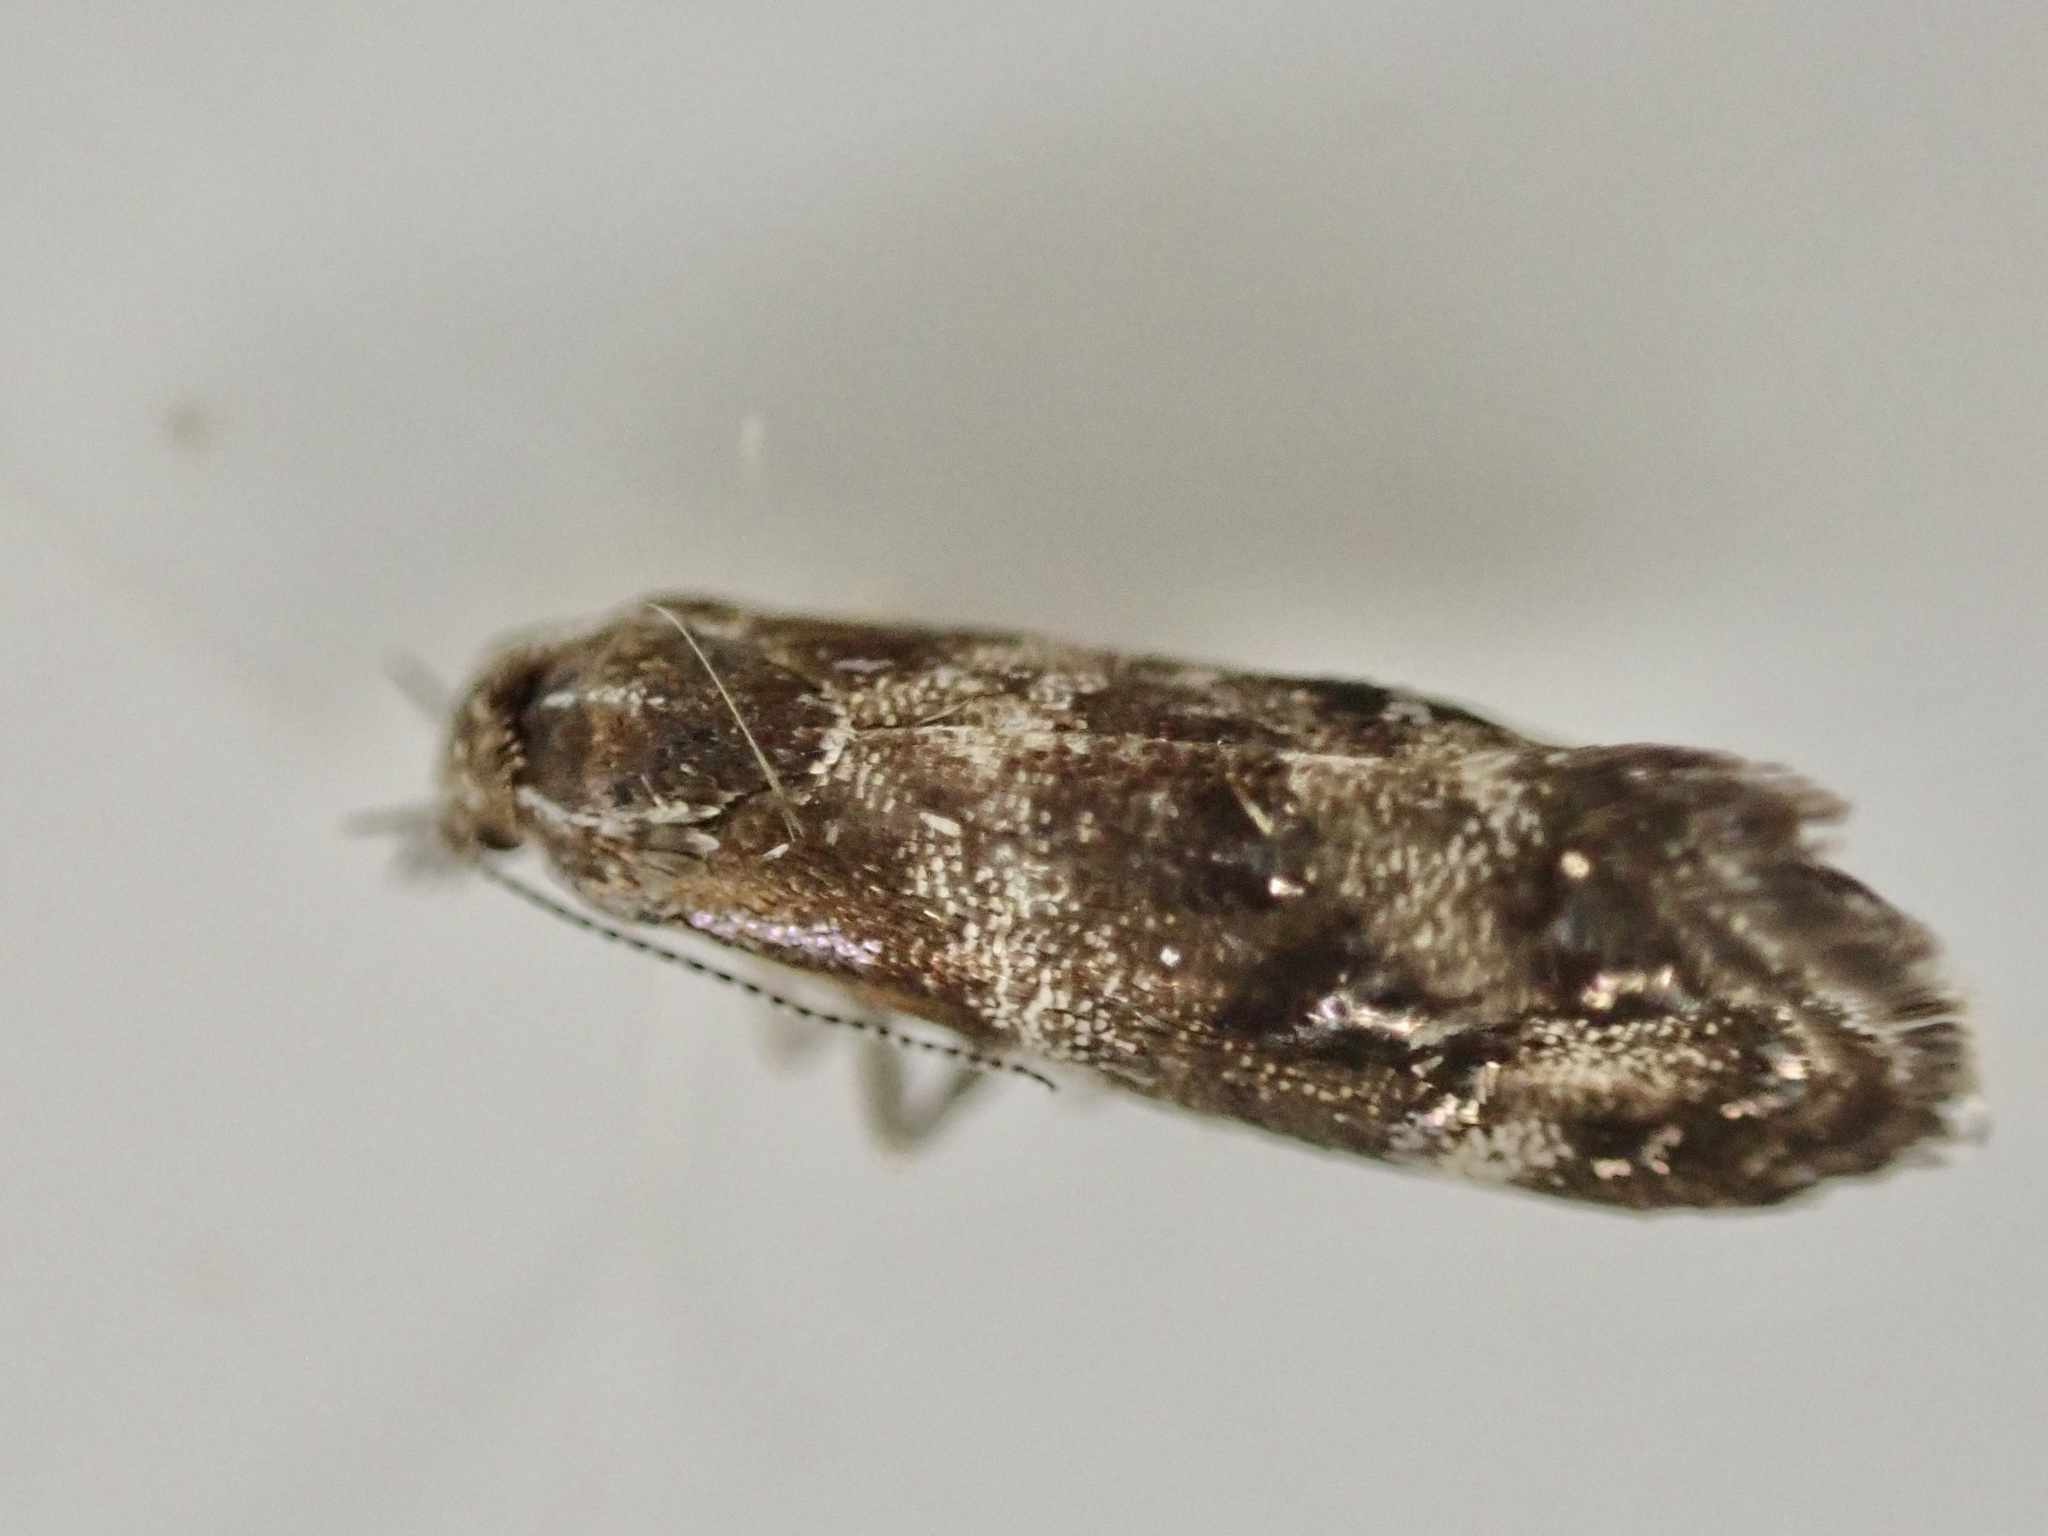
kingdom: Animalia
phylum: Arthropoda
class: Insecta
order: Lepidoptera
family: Choreutidae
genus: Tebenna
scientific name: Tebenna micalis
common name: Vagrant twitcher
